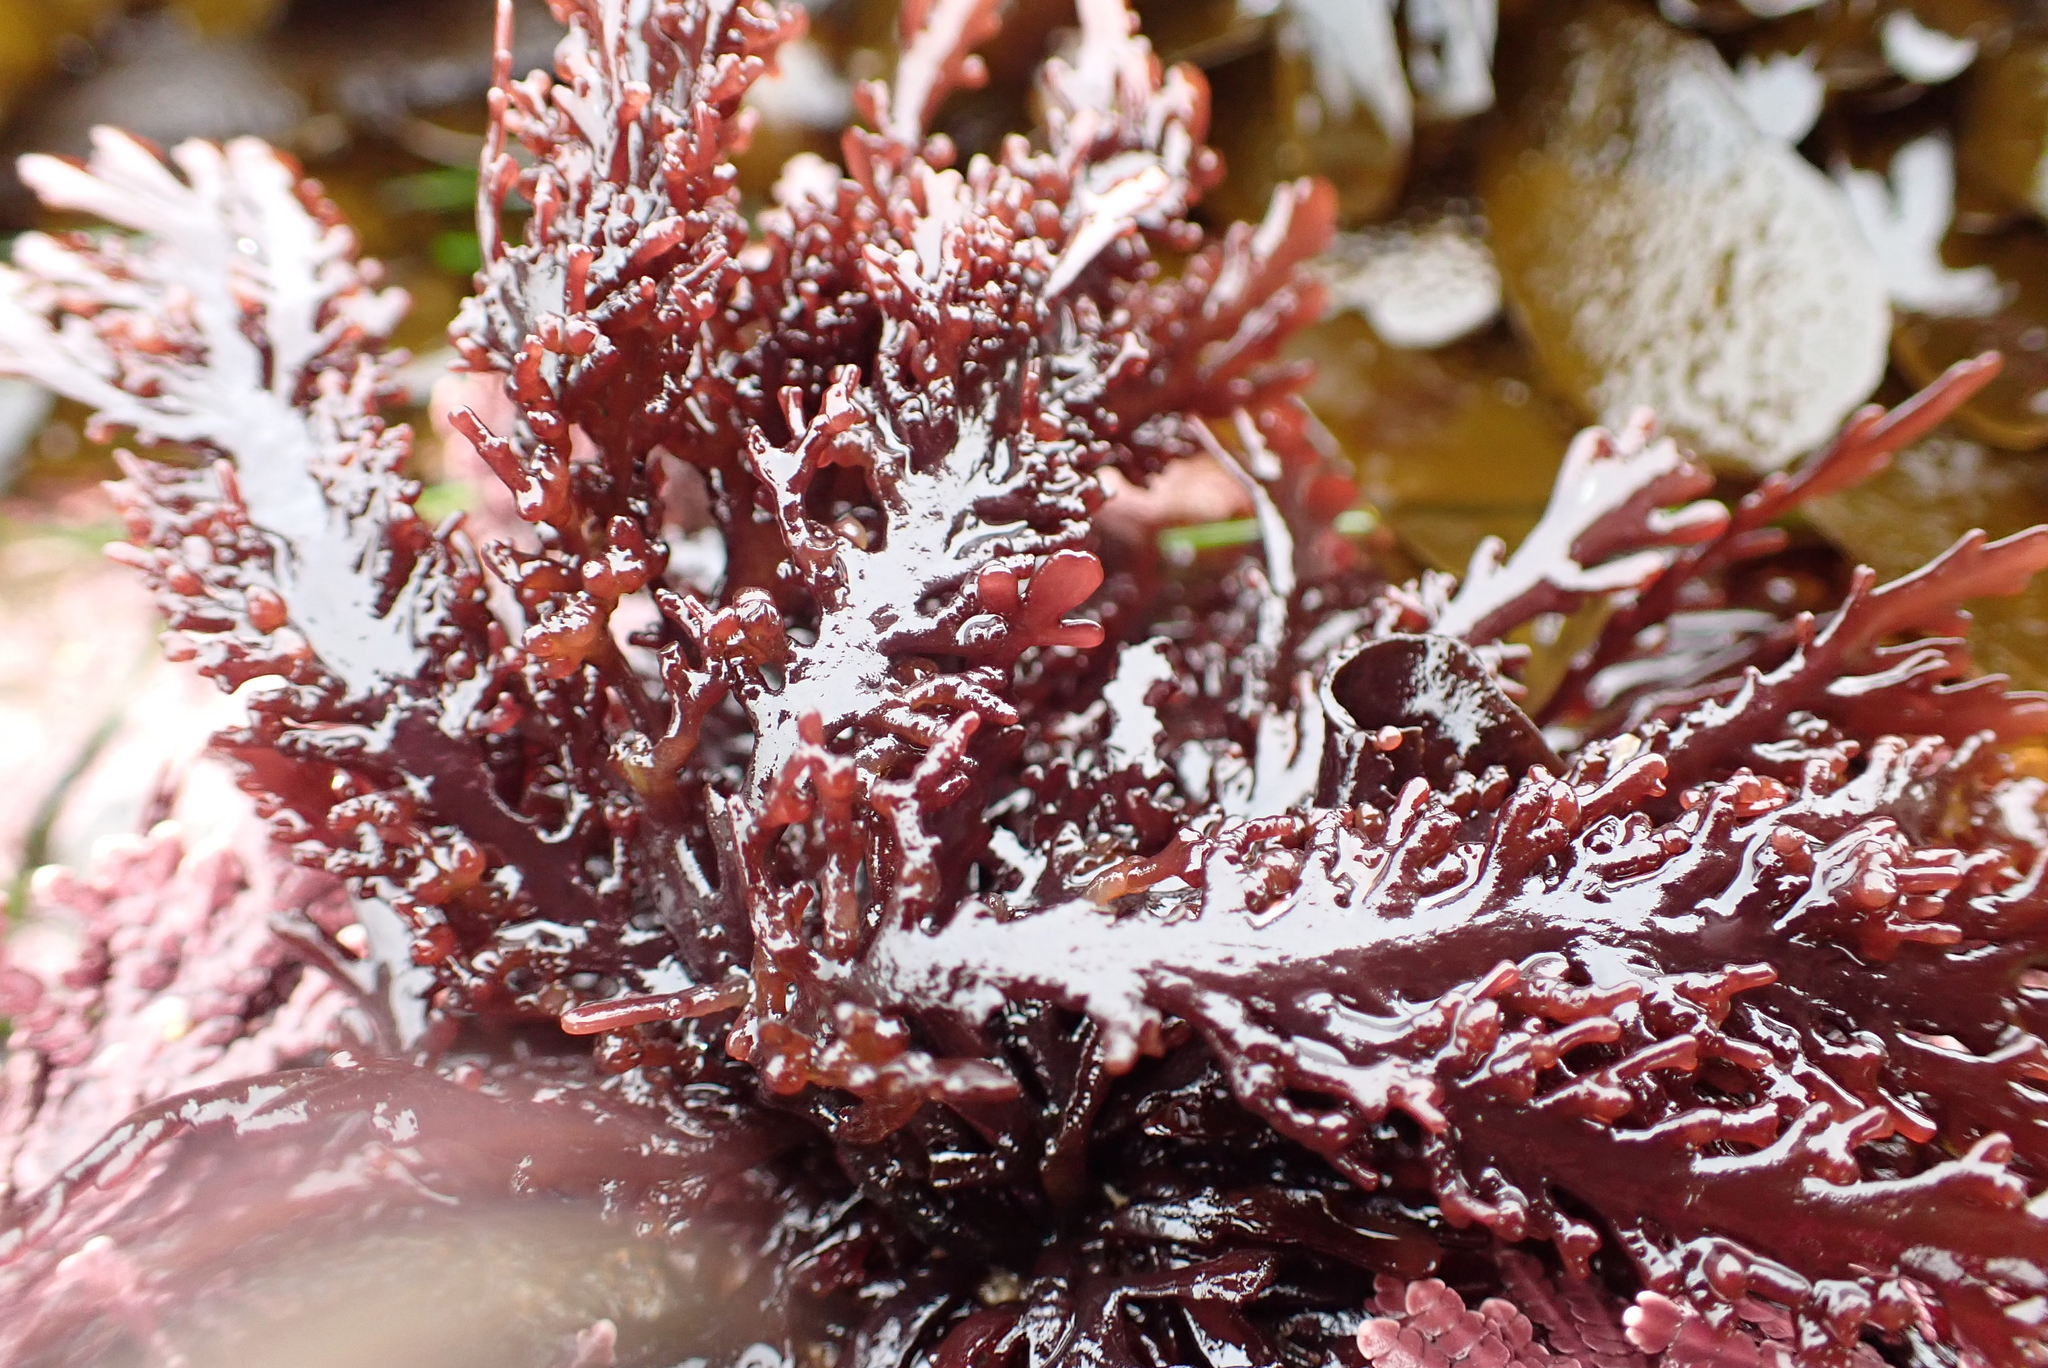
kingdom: Plantae
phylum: Rhodophyta
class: Florideophyceae
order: Ceramiales
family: Rhodomelaceae
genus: Osmundea
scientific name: Osmundea spectabilis
